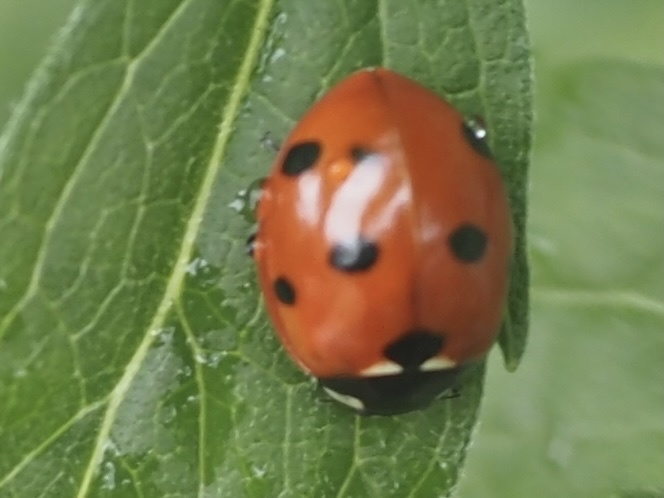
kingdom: Animalia
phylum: Arthropoda
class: Insecta
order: Coleoptera
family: Coccinellidae
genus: Coccinella
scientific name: Coccinella septempunctata
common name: Sevenspotted lady beetle
